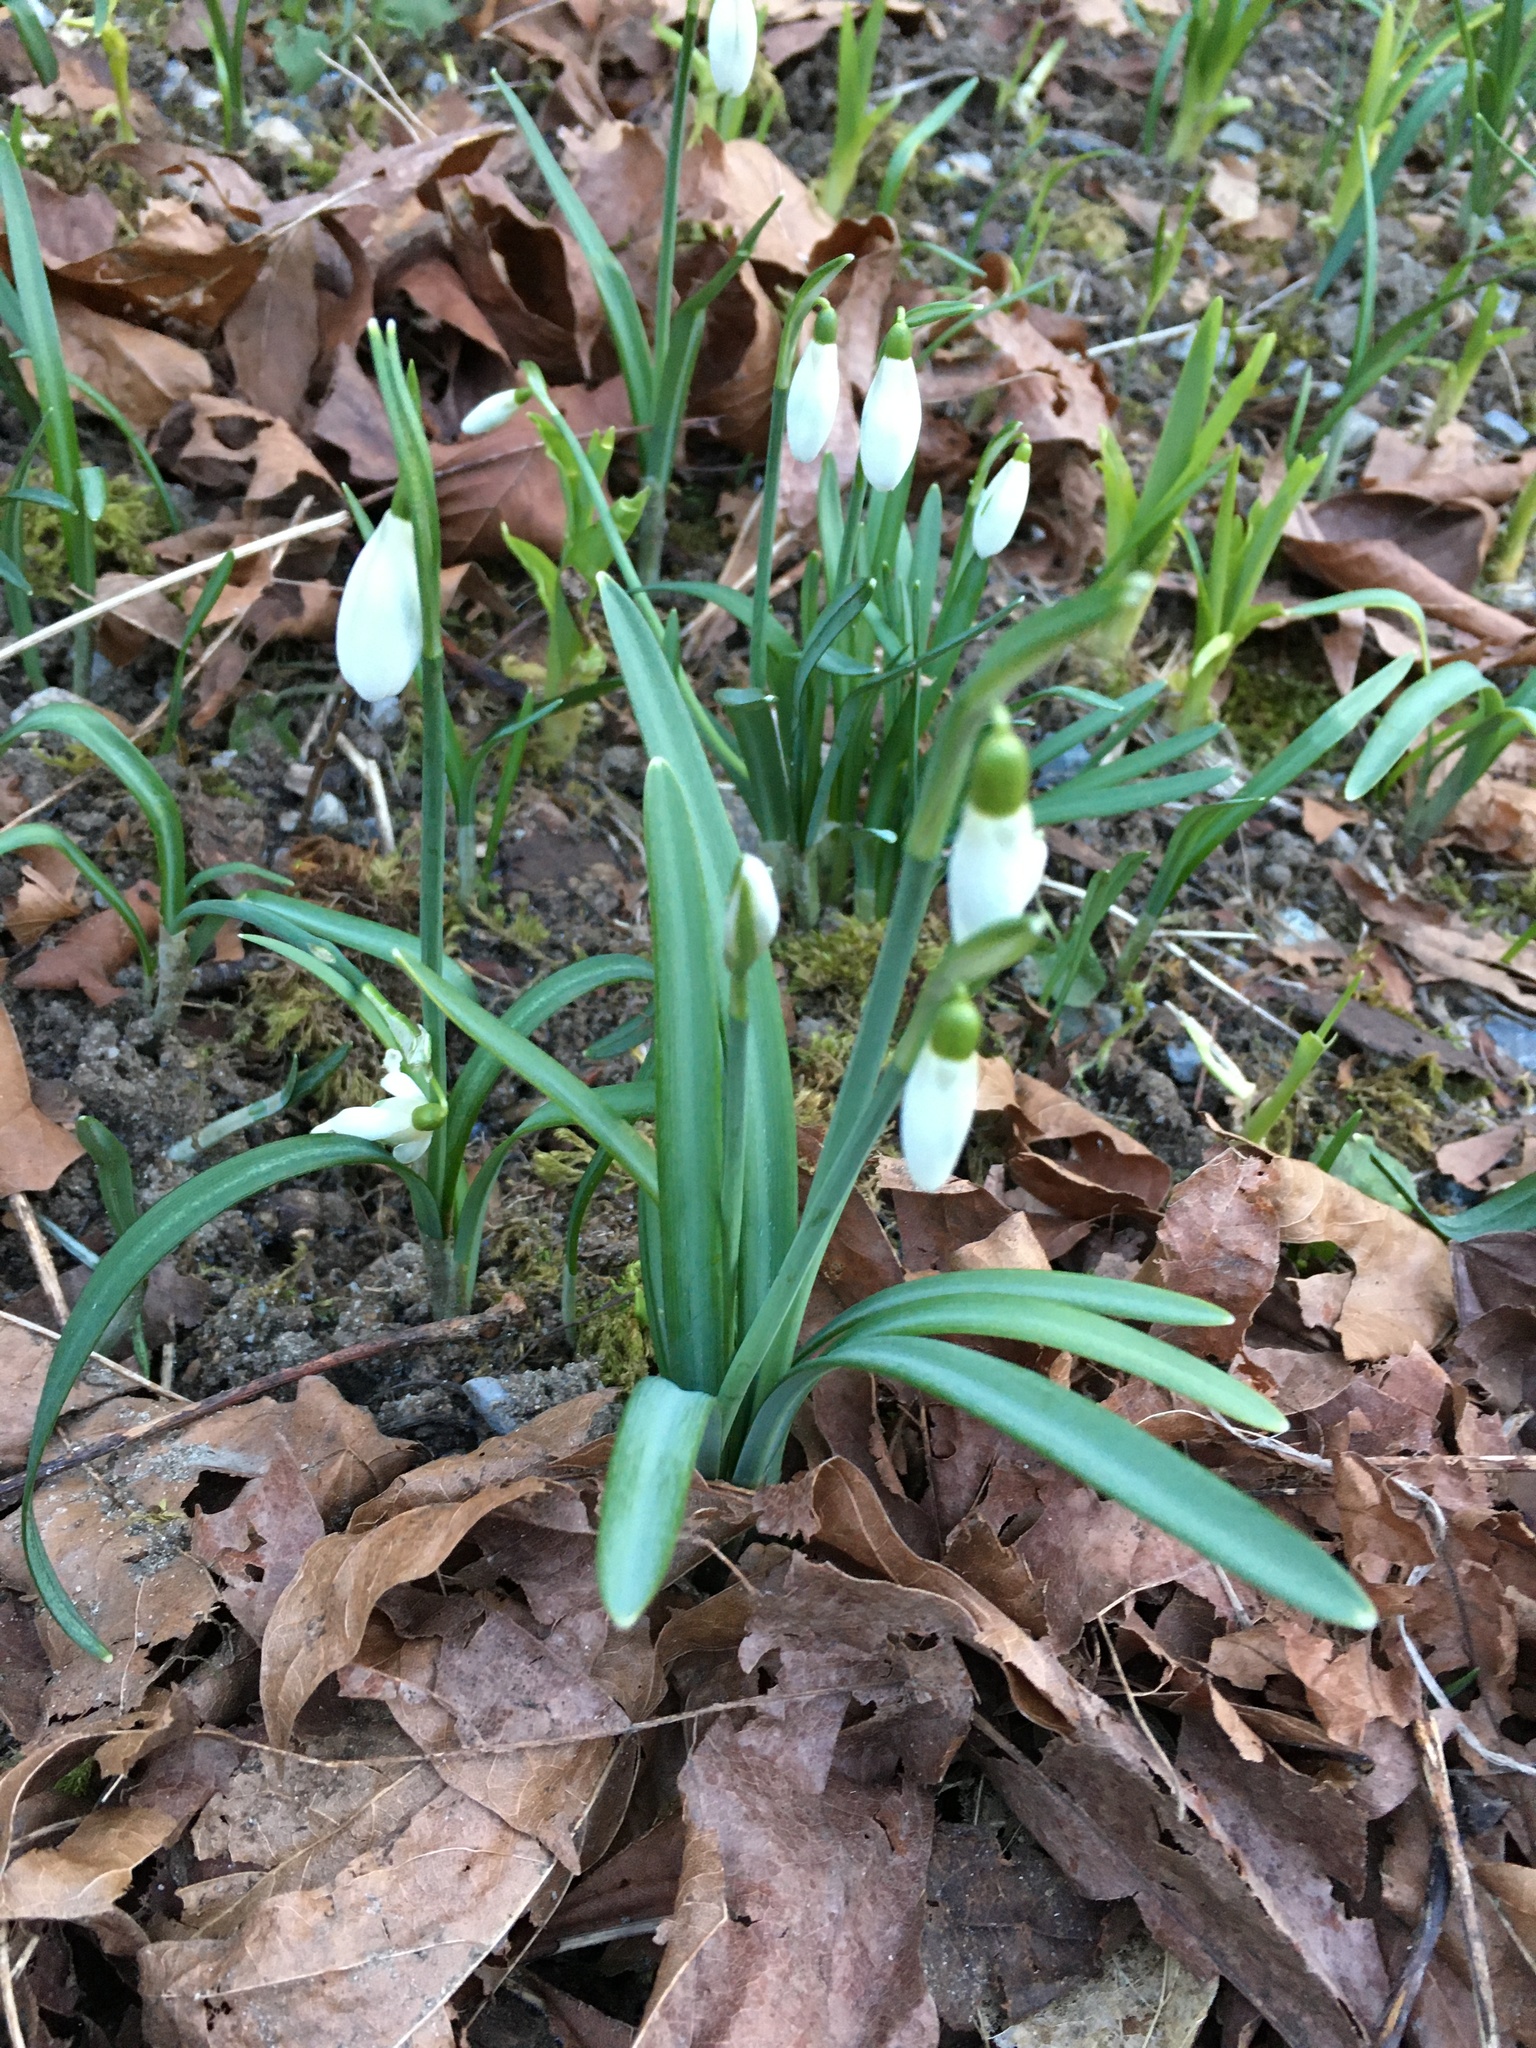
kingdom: Plantae
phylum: Tracheophyta
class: Liliopsida
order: Asparagales
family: Amaryllidaceae
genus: Galanthus
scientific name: Galanthus nivalis
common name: Snowdrop
